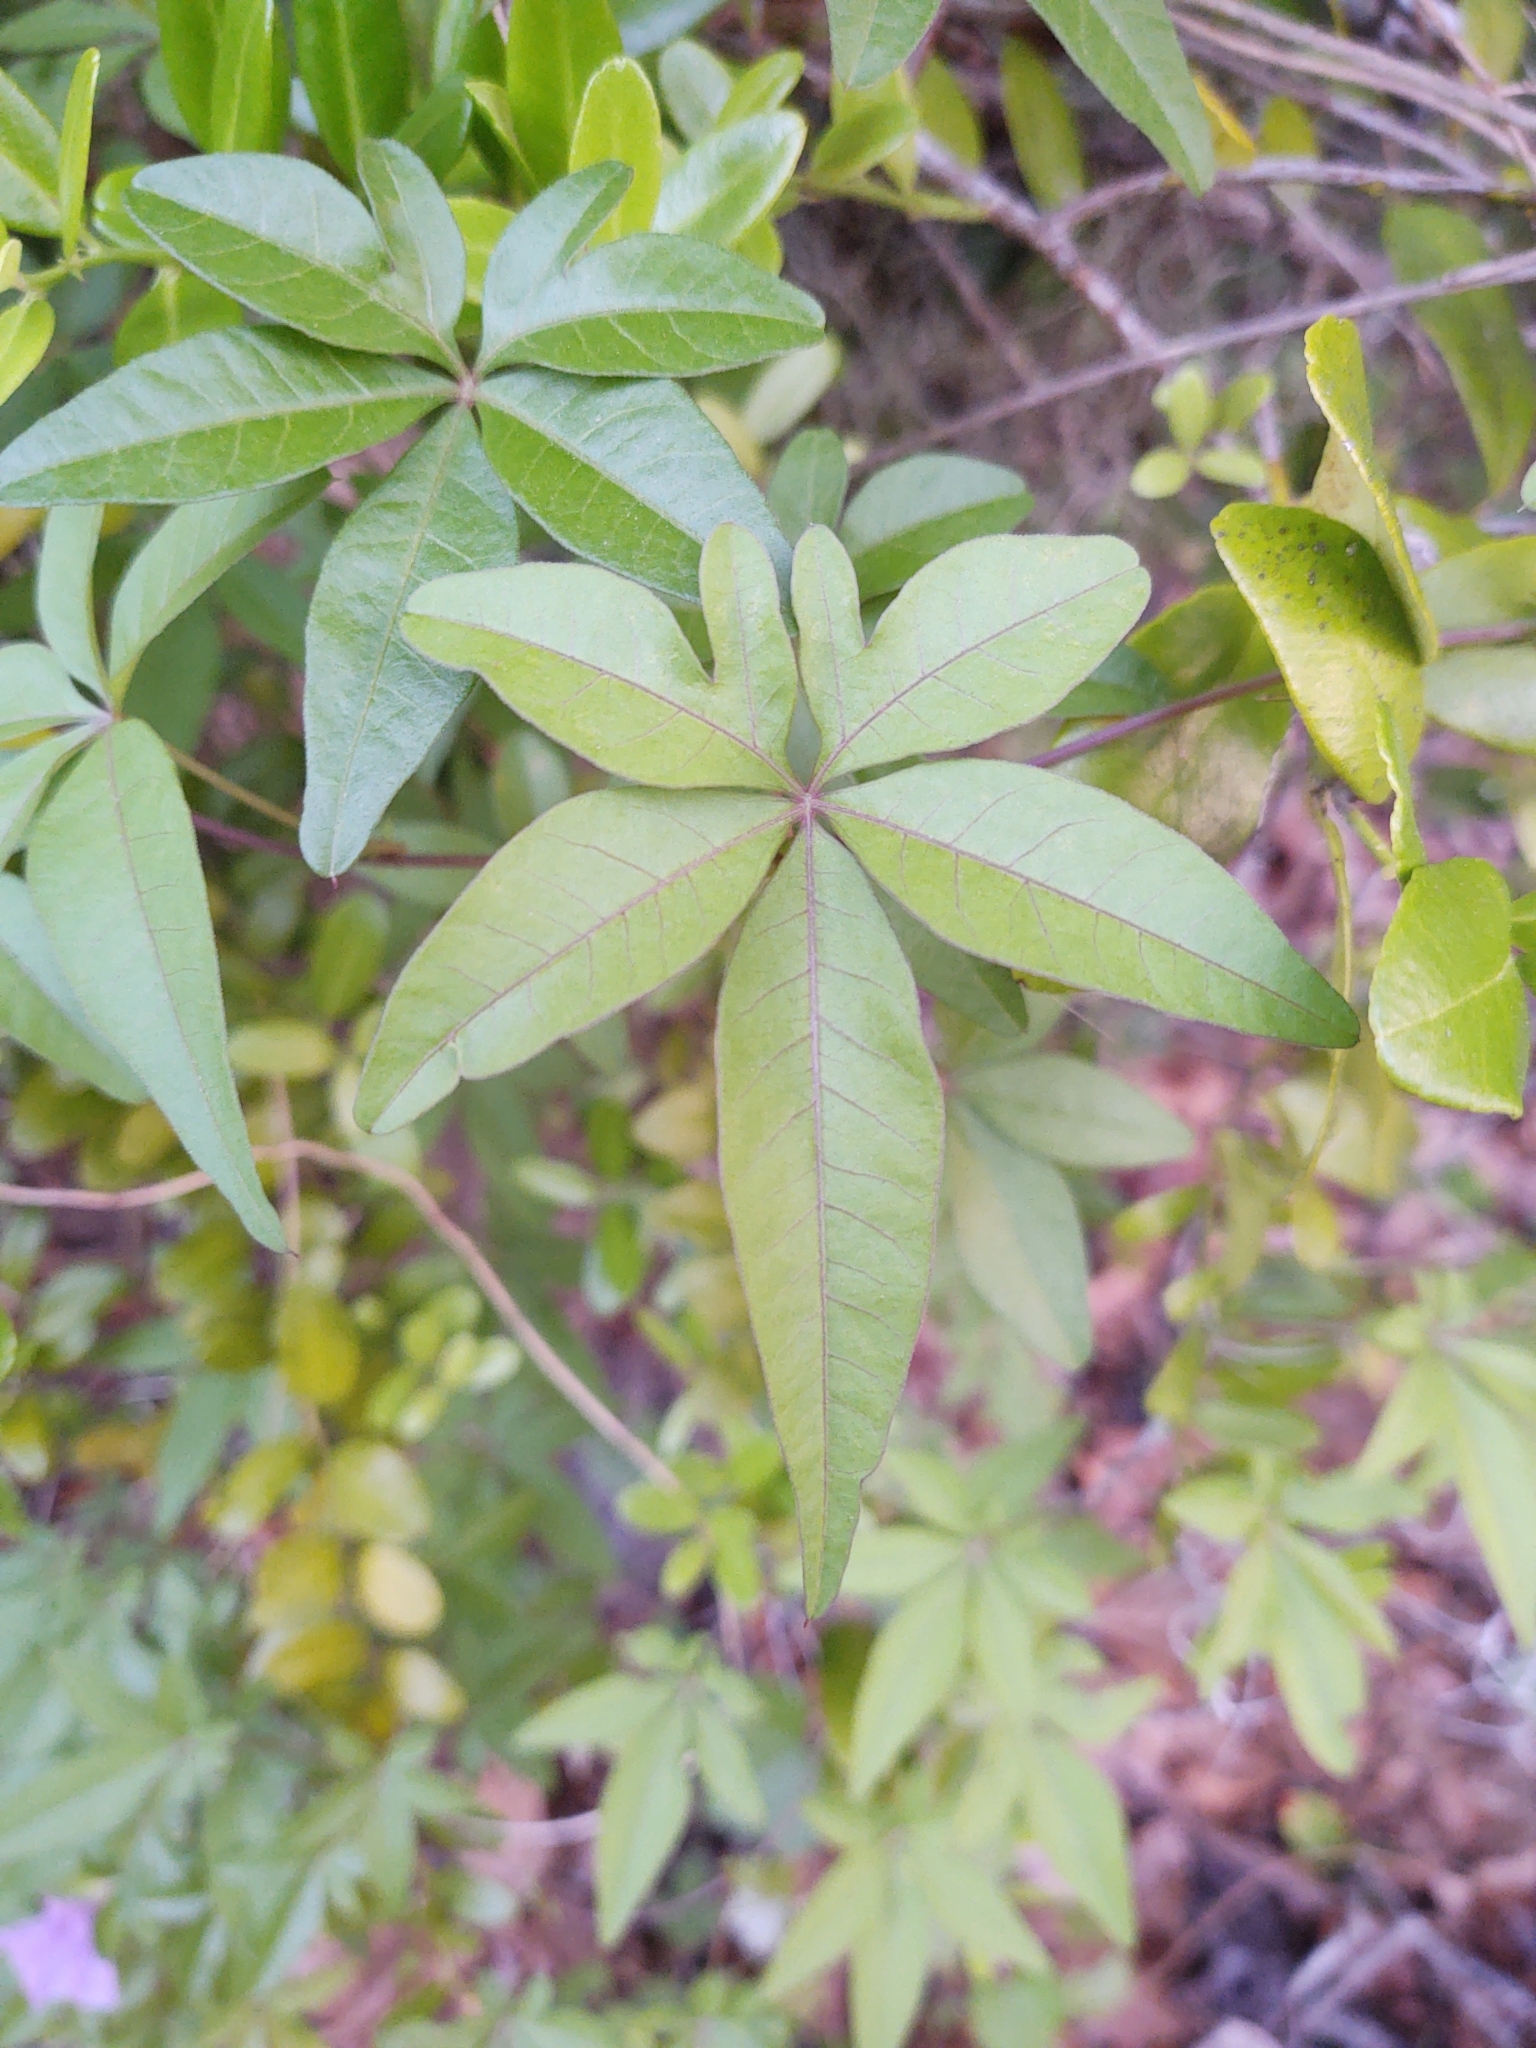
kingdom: Plantae
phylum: Tracheophyta
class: Magnoliopsida
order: Solanales
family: Convolvulaceae
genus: Ipomoea
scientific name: Ipomoea cairica
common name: Mile a minute vine
